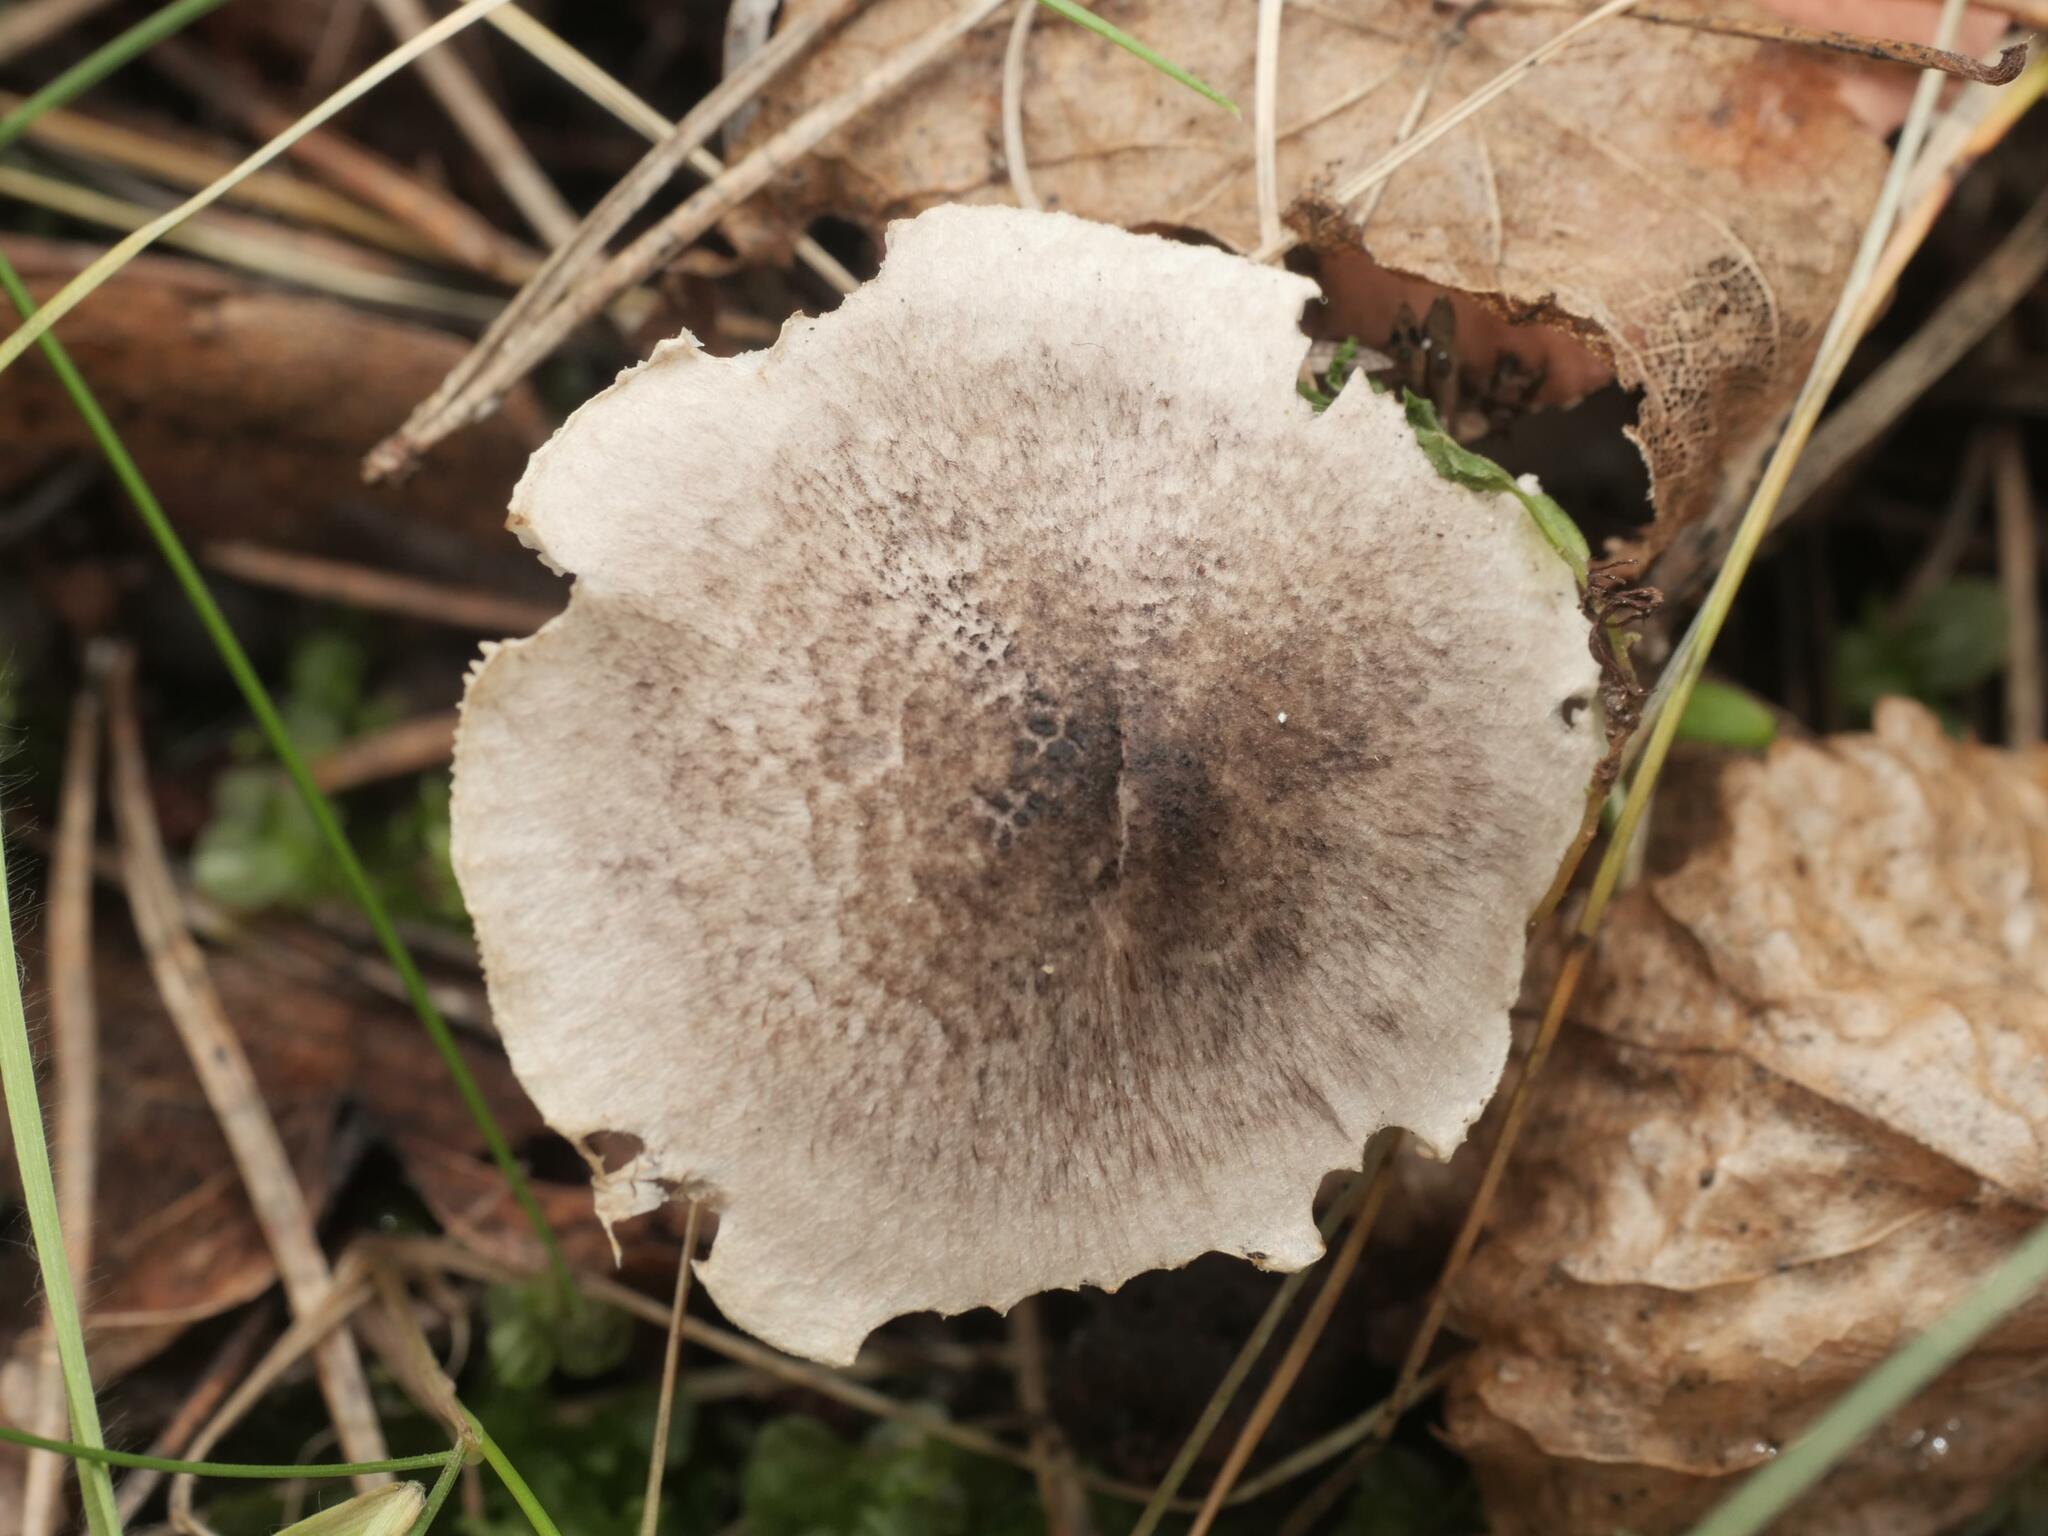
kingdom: Fungi
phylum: Basidiomycota
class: Agaricomycetes
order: Agaricales
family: Tricholomataceae
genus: Tricholoma
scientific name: Tricholoma scalpturatum
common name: Yellowing knight
